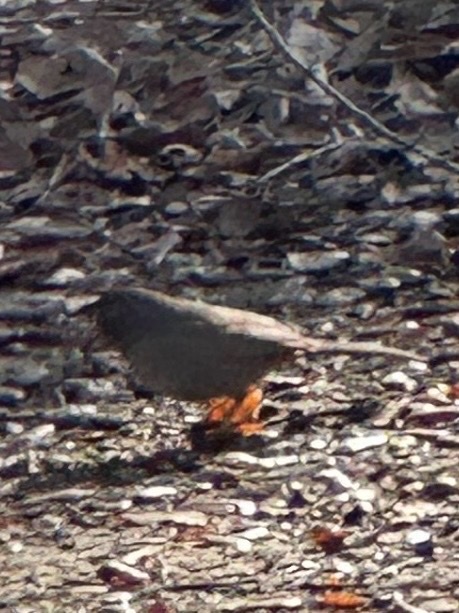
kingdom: Animalia
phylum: Chordata
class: Aves
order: Passeriformes
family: Passerellidae
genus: Melozone
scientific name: Melozone crissalis
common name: California towhee
